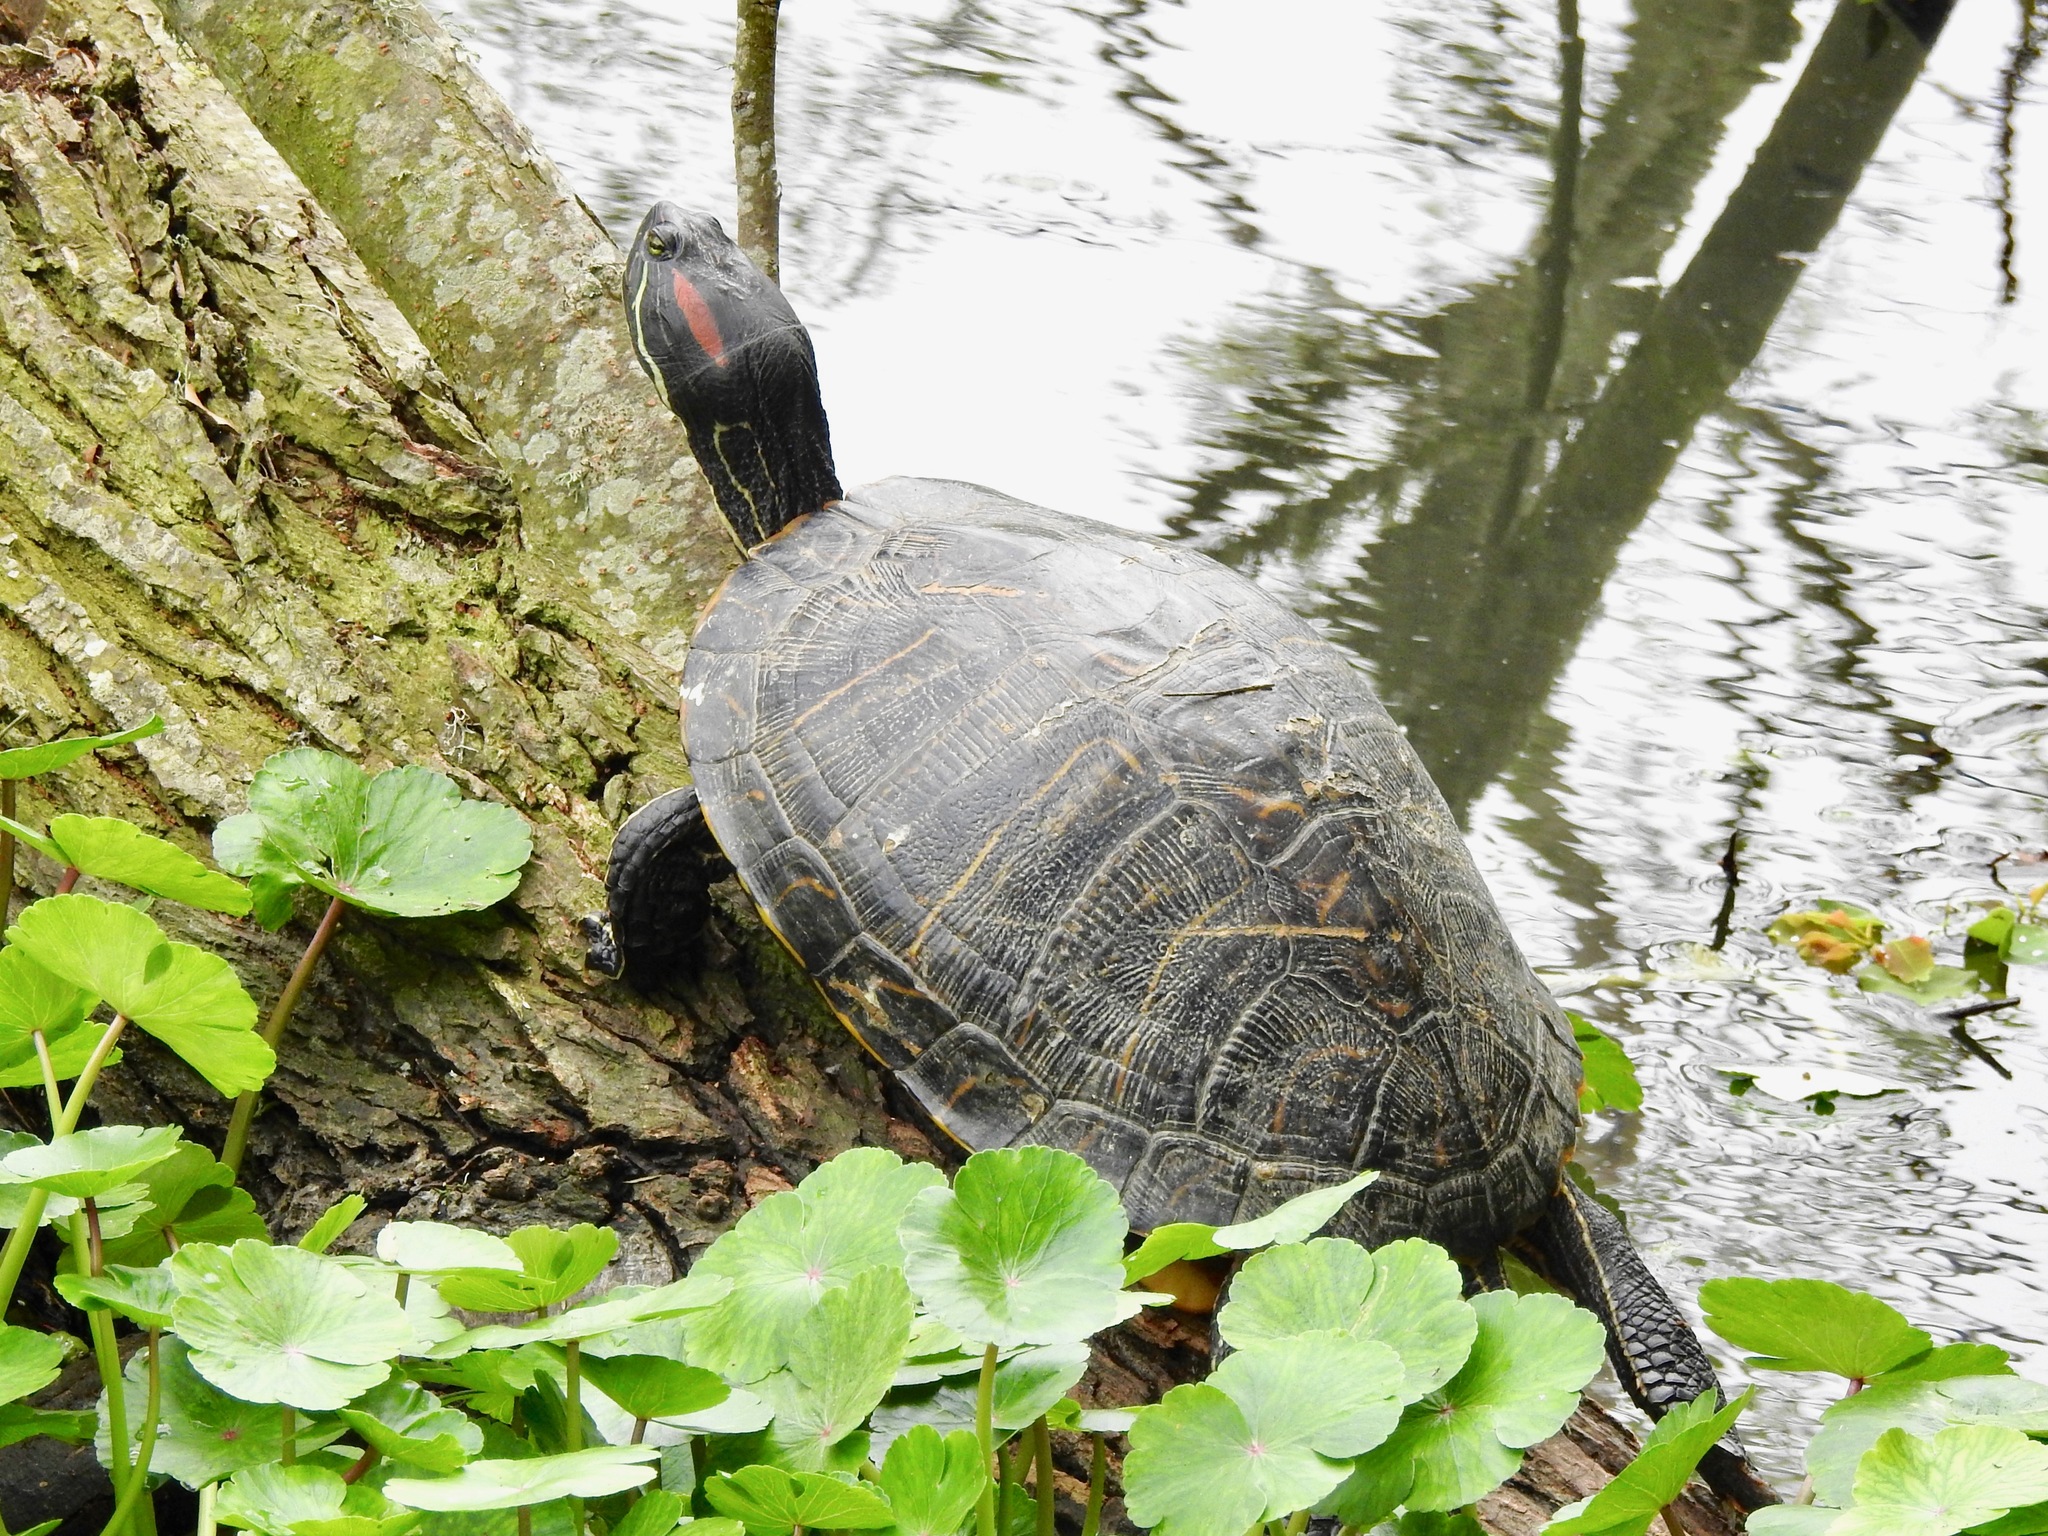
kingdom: Animalia
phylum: Chordata
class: Testudines
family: Emydidae
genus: Trachemys
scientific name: Trachemys scripta
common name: Slider
